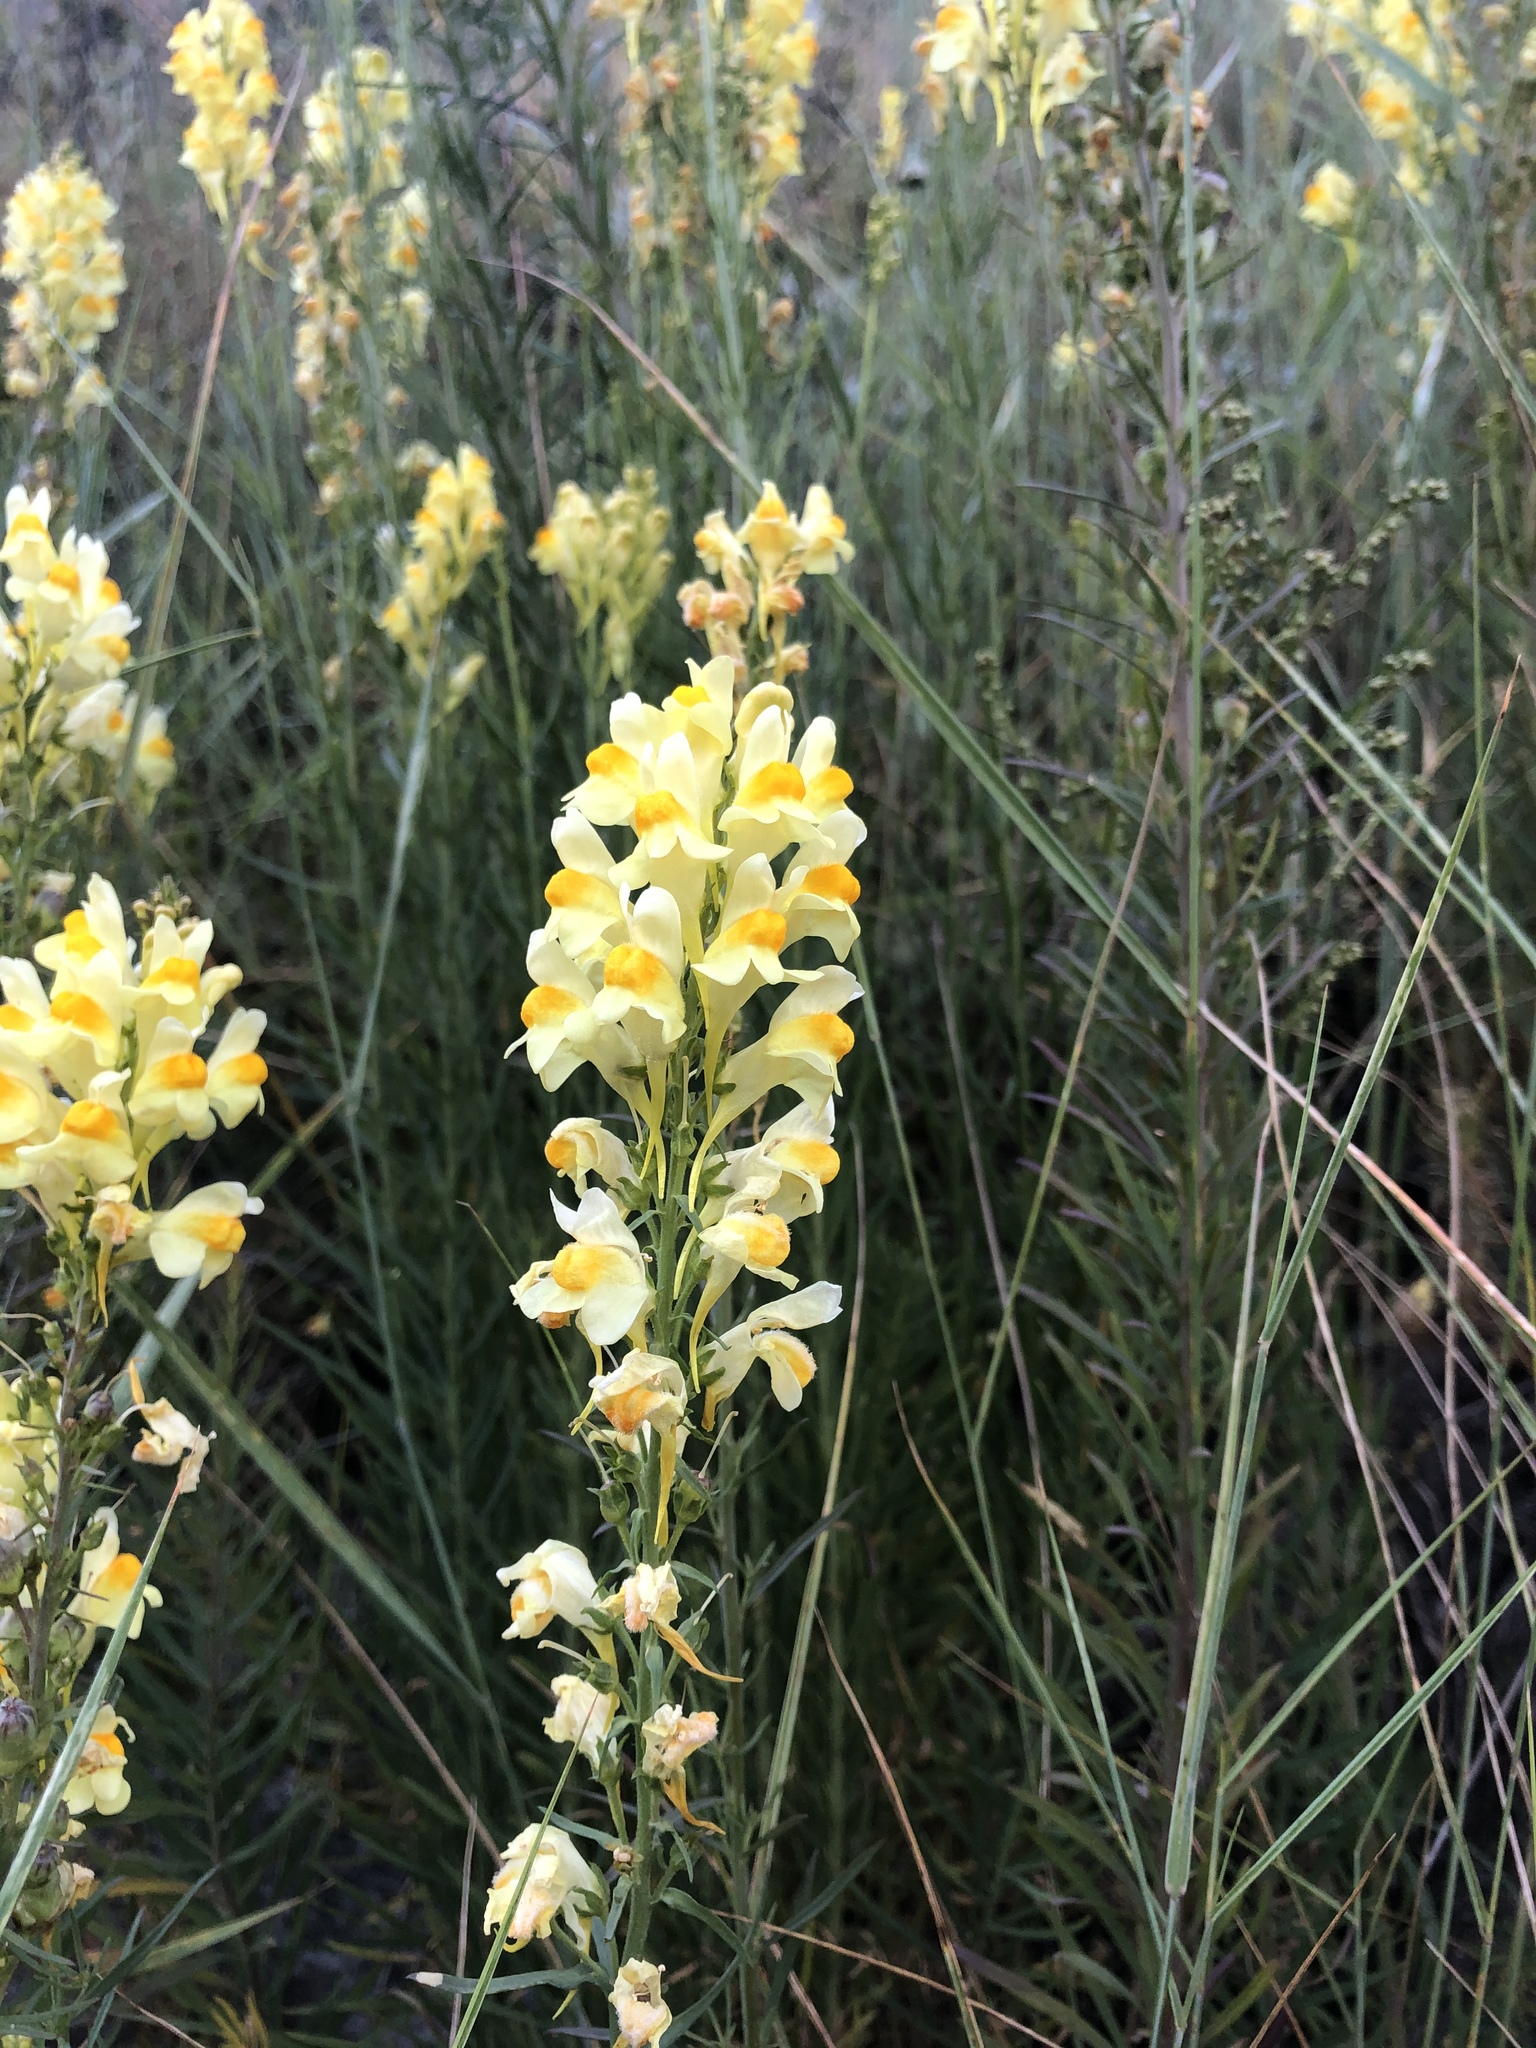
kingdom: Plantae
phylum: Tracheophyta
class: Magnoliopsida
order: Lamiales
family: Plantaginaceae
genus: Linaria
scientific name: Linaria vulgaris
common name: Butter and eggs
